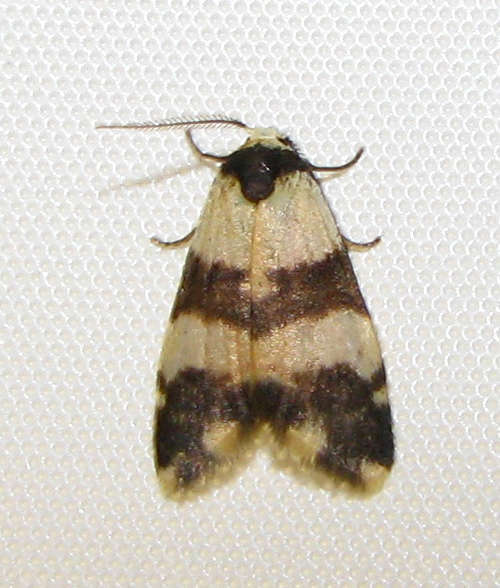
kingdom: Animalia
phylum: Arthropoda
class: Insecta
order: Lepidoptera
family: Erebidae
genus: Thallarcha
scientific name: Thallarcha chrysochares
